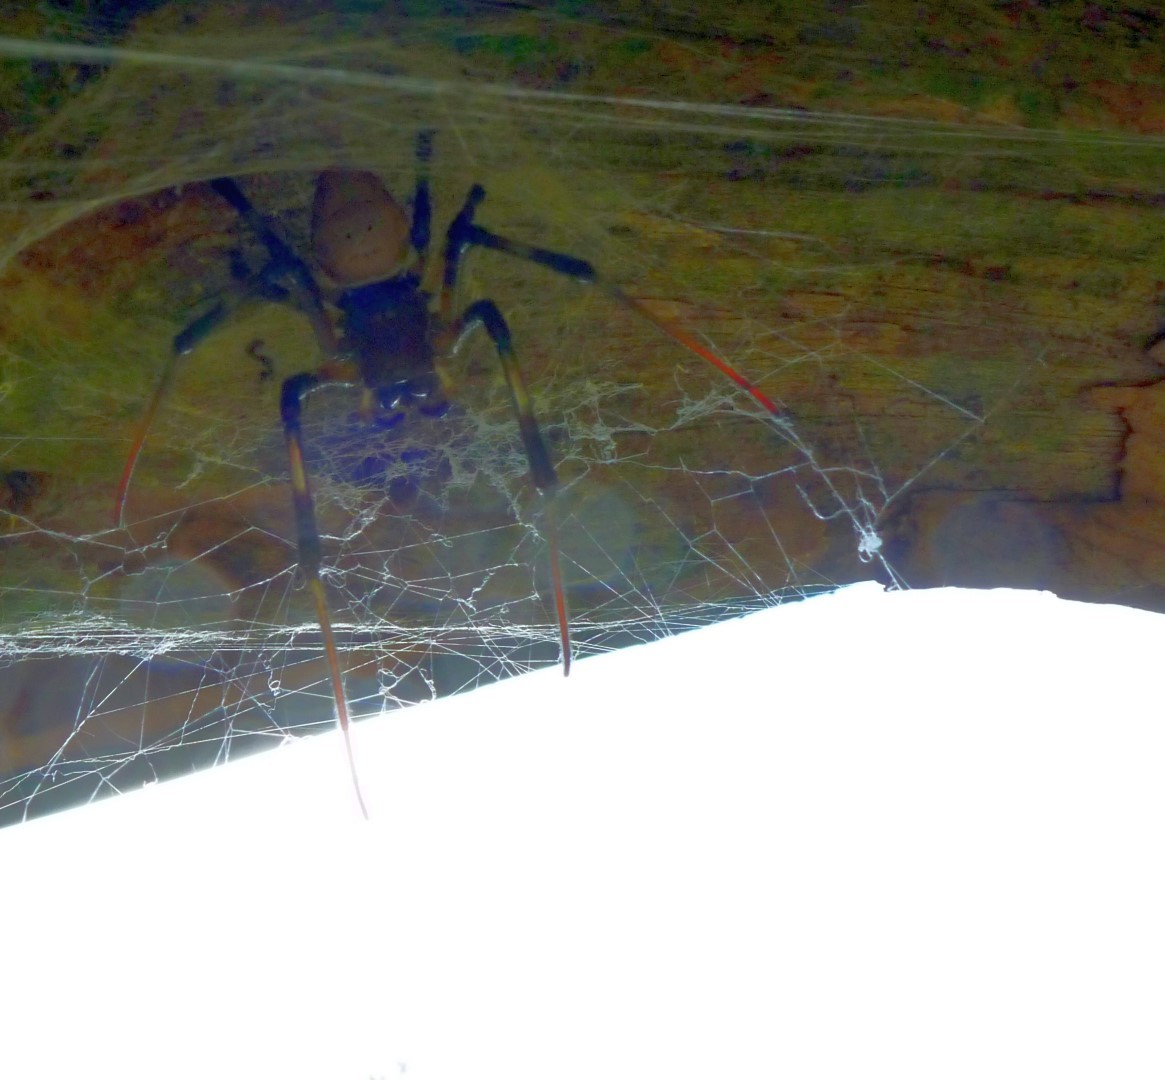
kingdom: Animalia
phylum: Arthropoda
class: Arachnida
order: Araneae
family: Araneidae
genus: Nephilingis
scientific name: Nephilingis livida
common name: Madagascar hermit spider
